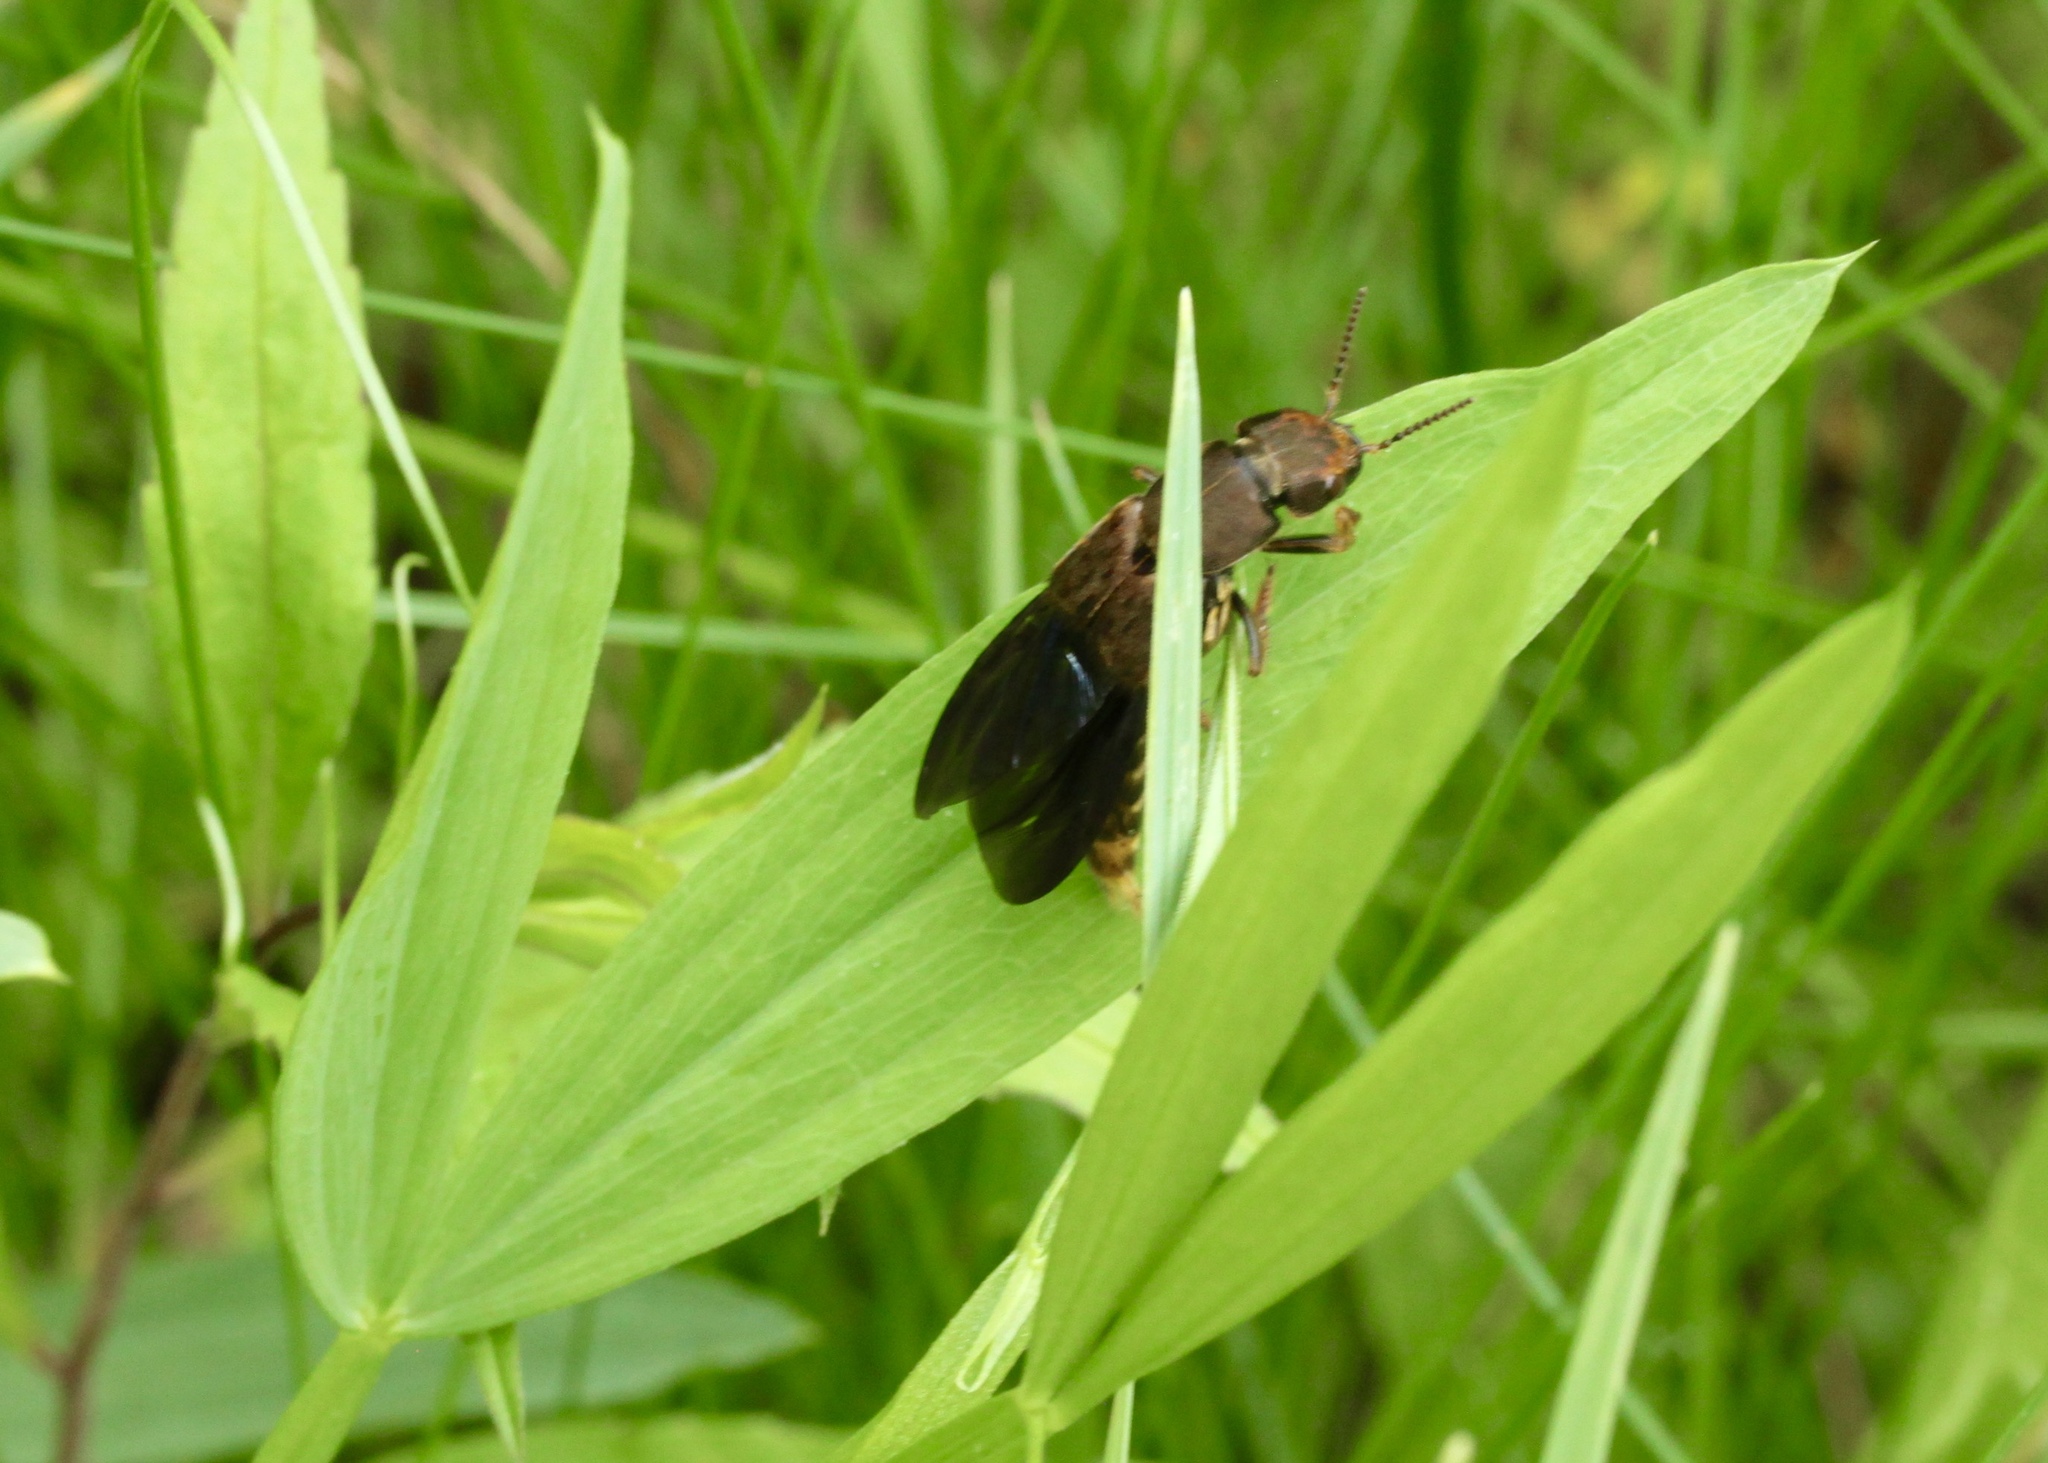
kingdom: Animalia
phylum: Arthropoda
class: Insecta
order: Coleoptera
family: Staphylinidae
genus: Platydracus
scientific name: Platydracus maculosus
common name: Brown rove beetle
